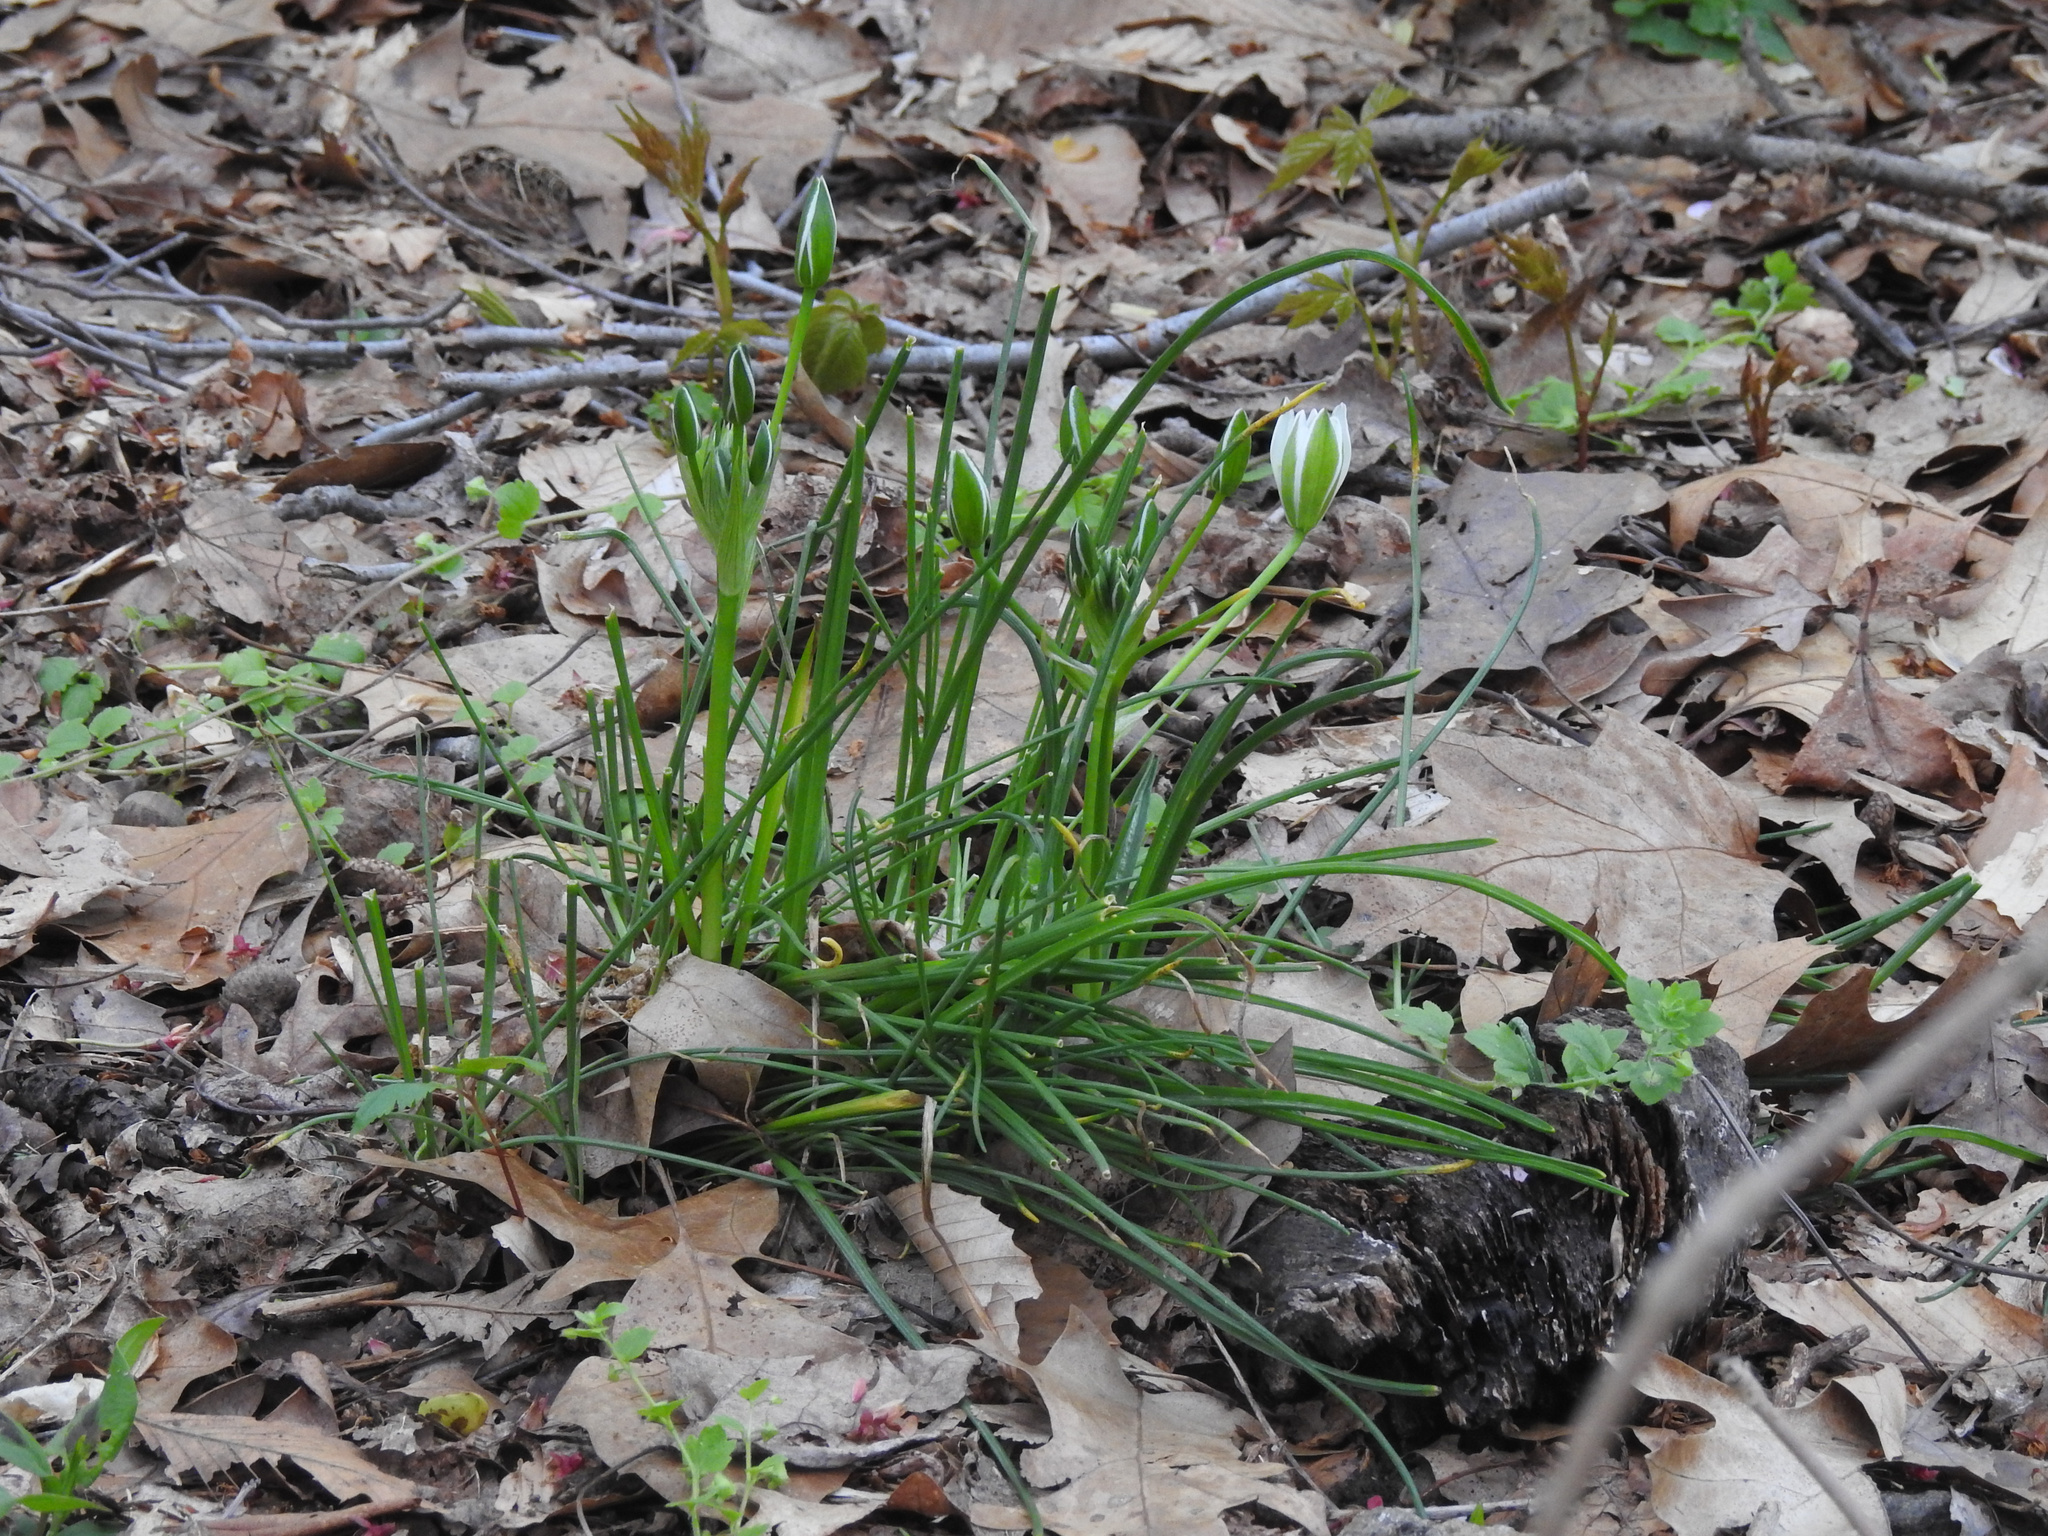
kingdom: Plantae
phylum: Tracheophyta
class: Liliopsida
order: Asparagales
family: Asparagaceae
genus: Ornithogalum
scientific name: Ornithogalum umbellatum
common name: Garden star-of-bethlehem
